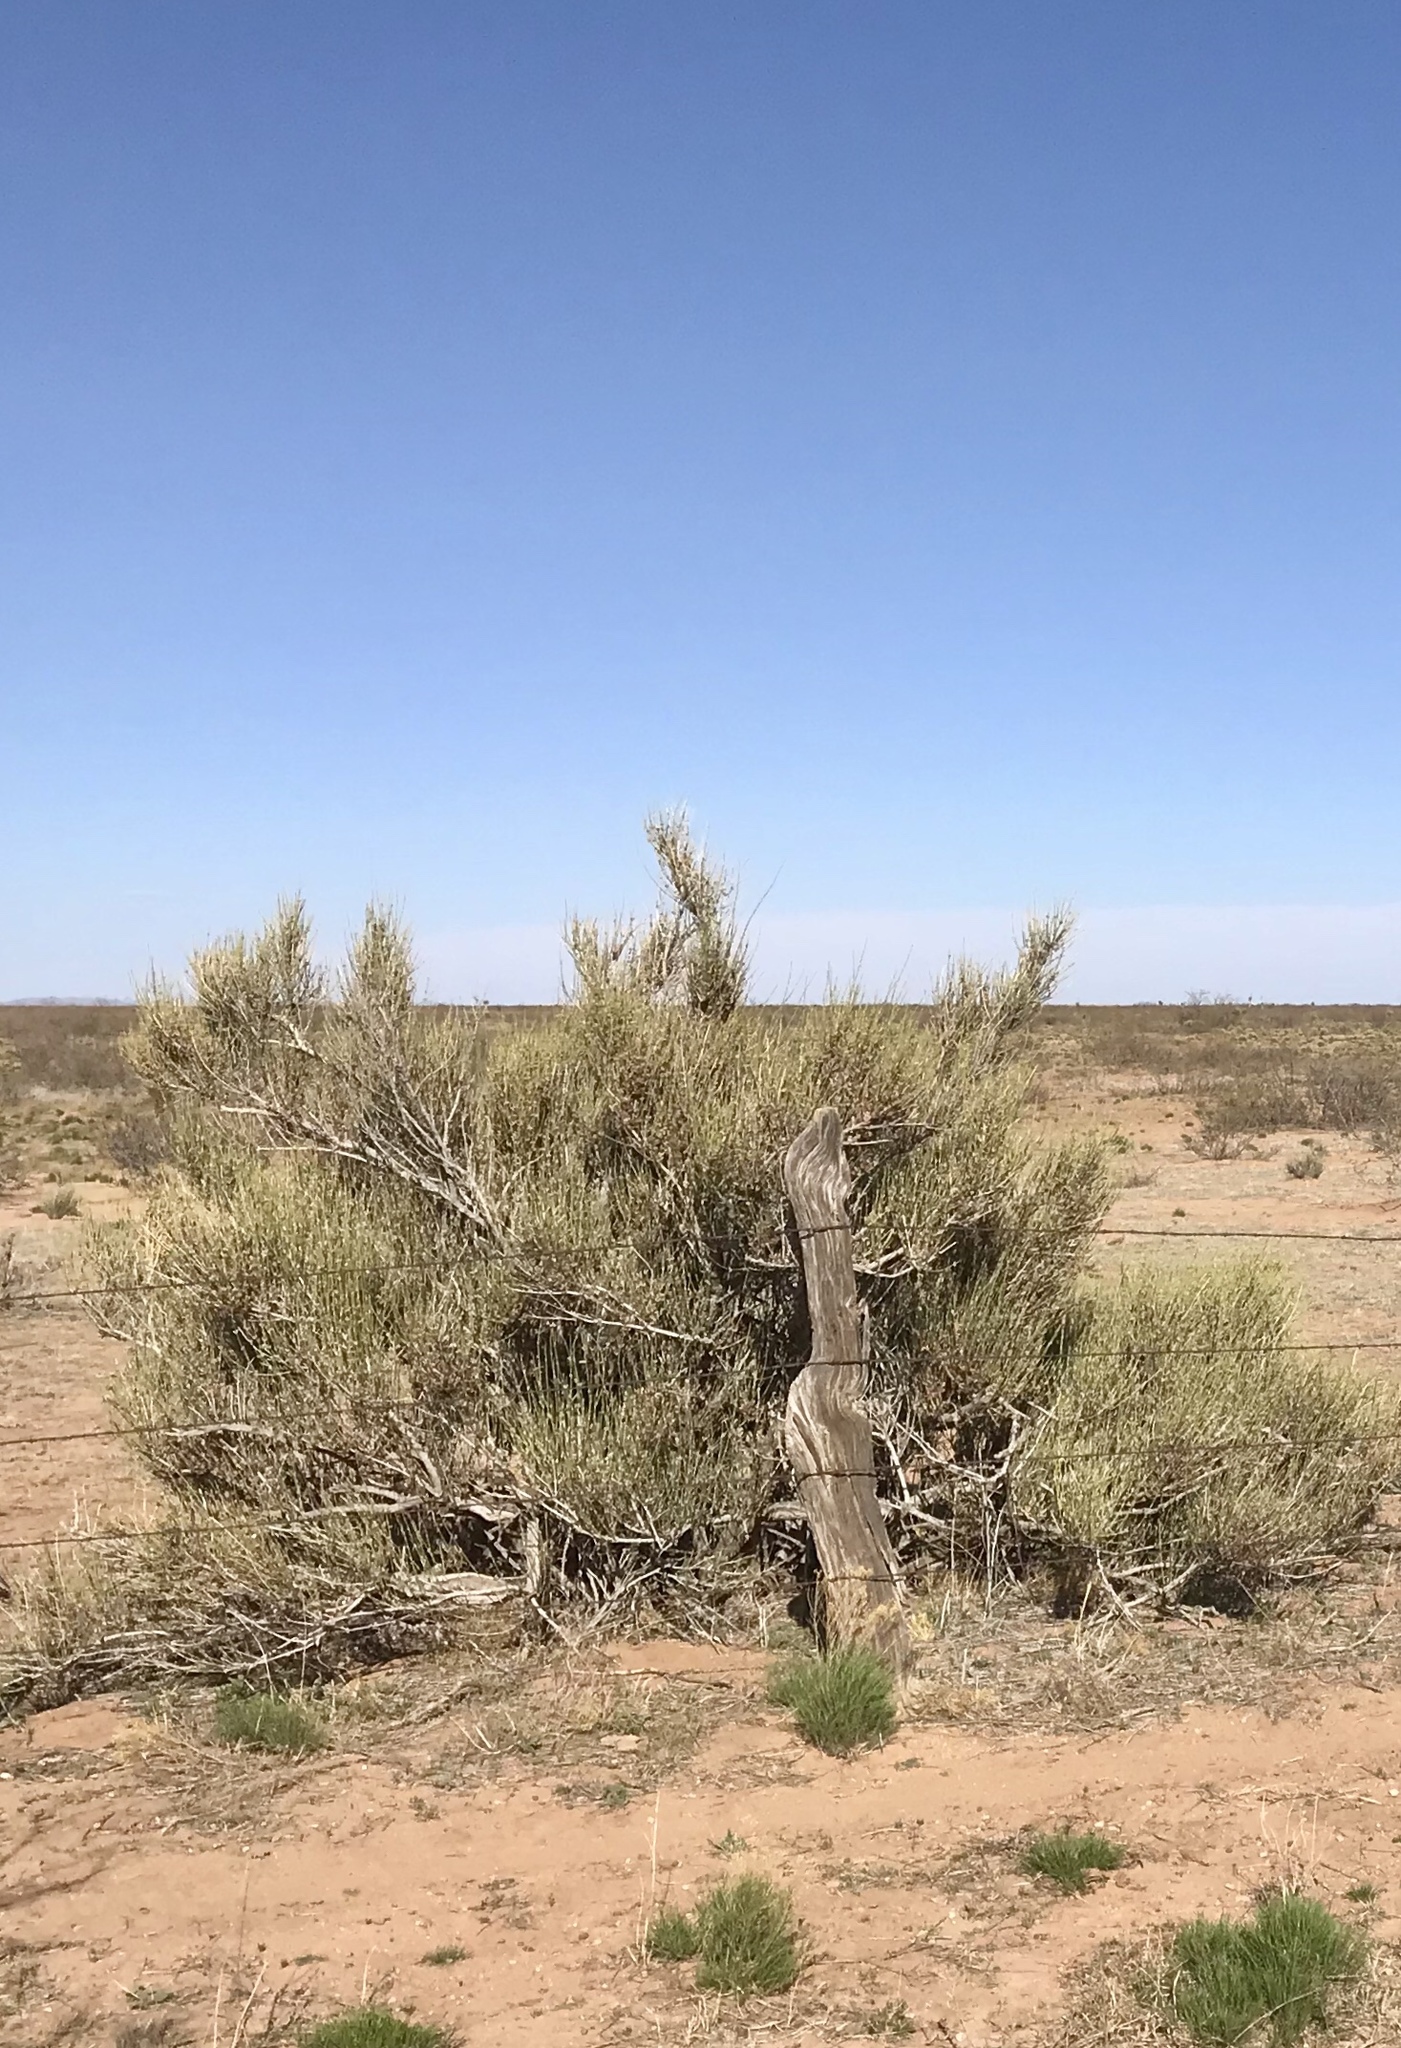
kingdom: Plantae
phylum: Tracheophyta
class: Gnetopsida
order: Ephedrales
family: Ephedraceae
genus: Ephedra
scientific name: Ephedra trifurca
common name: Mexican-tea
